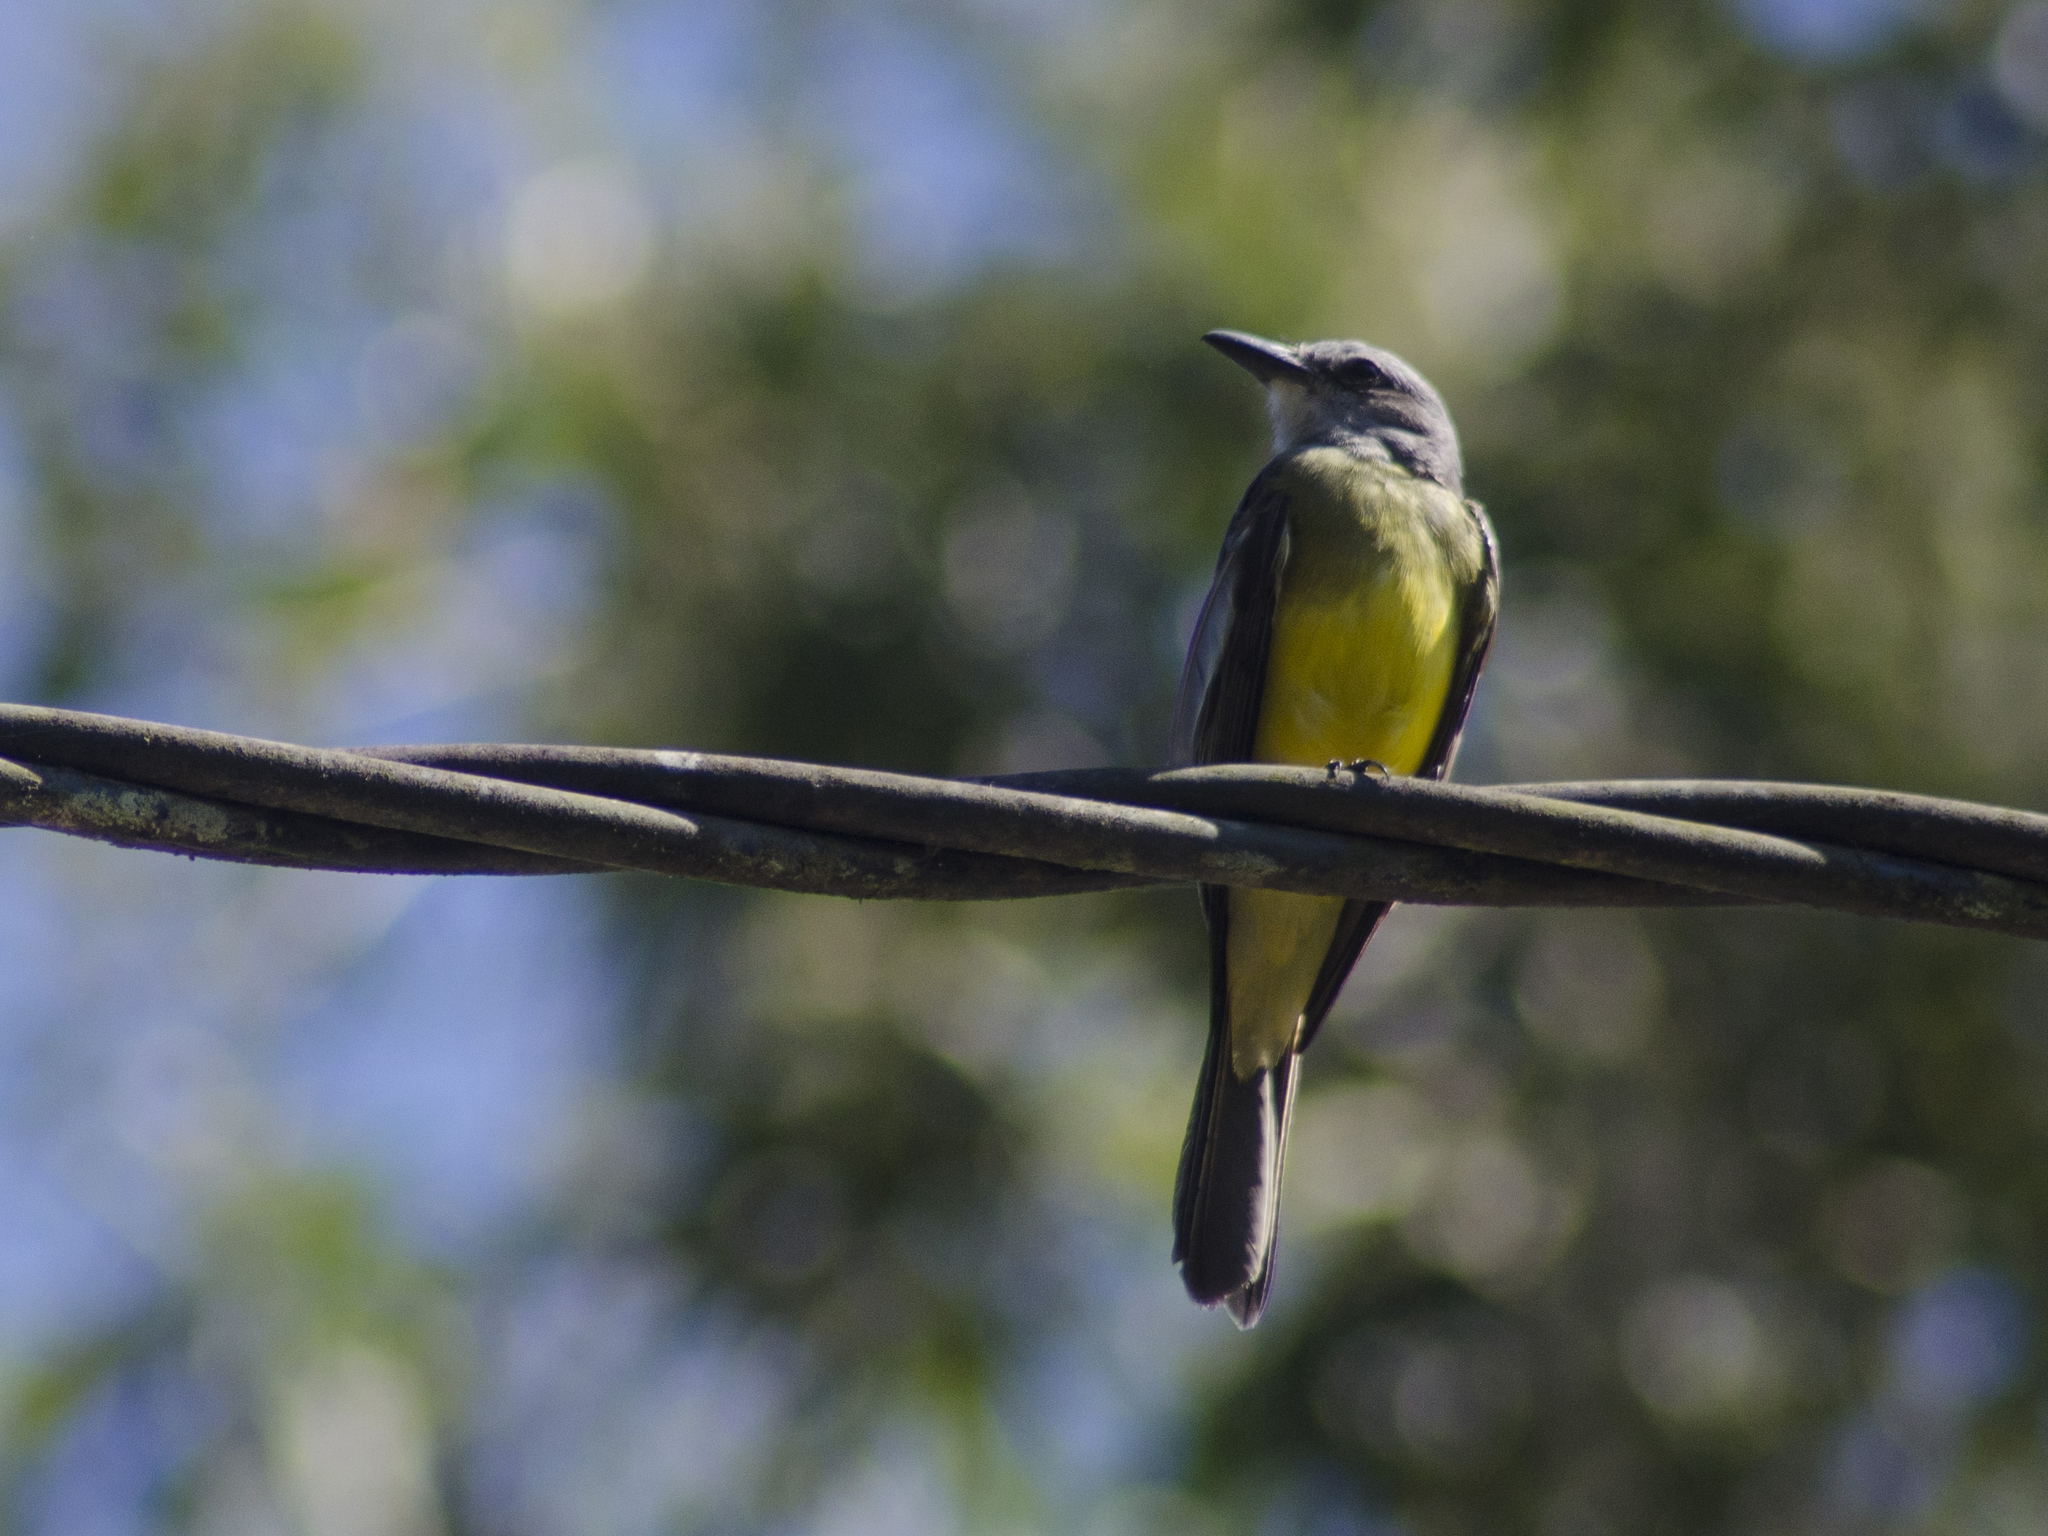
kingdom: Animalia
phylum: Chordata
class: Aves
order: Passeriformes
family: Tyrannidae
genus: Tyrannus
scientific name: Tyrannus melancholicus
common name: Tropical kingbird
